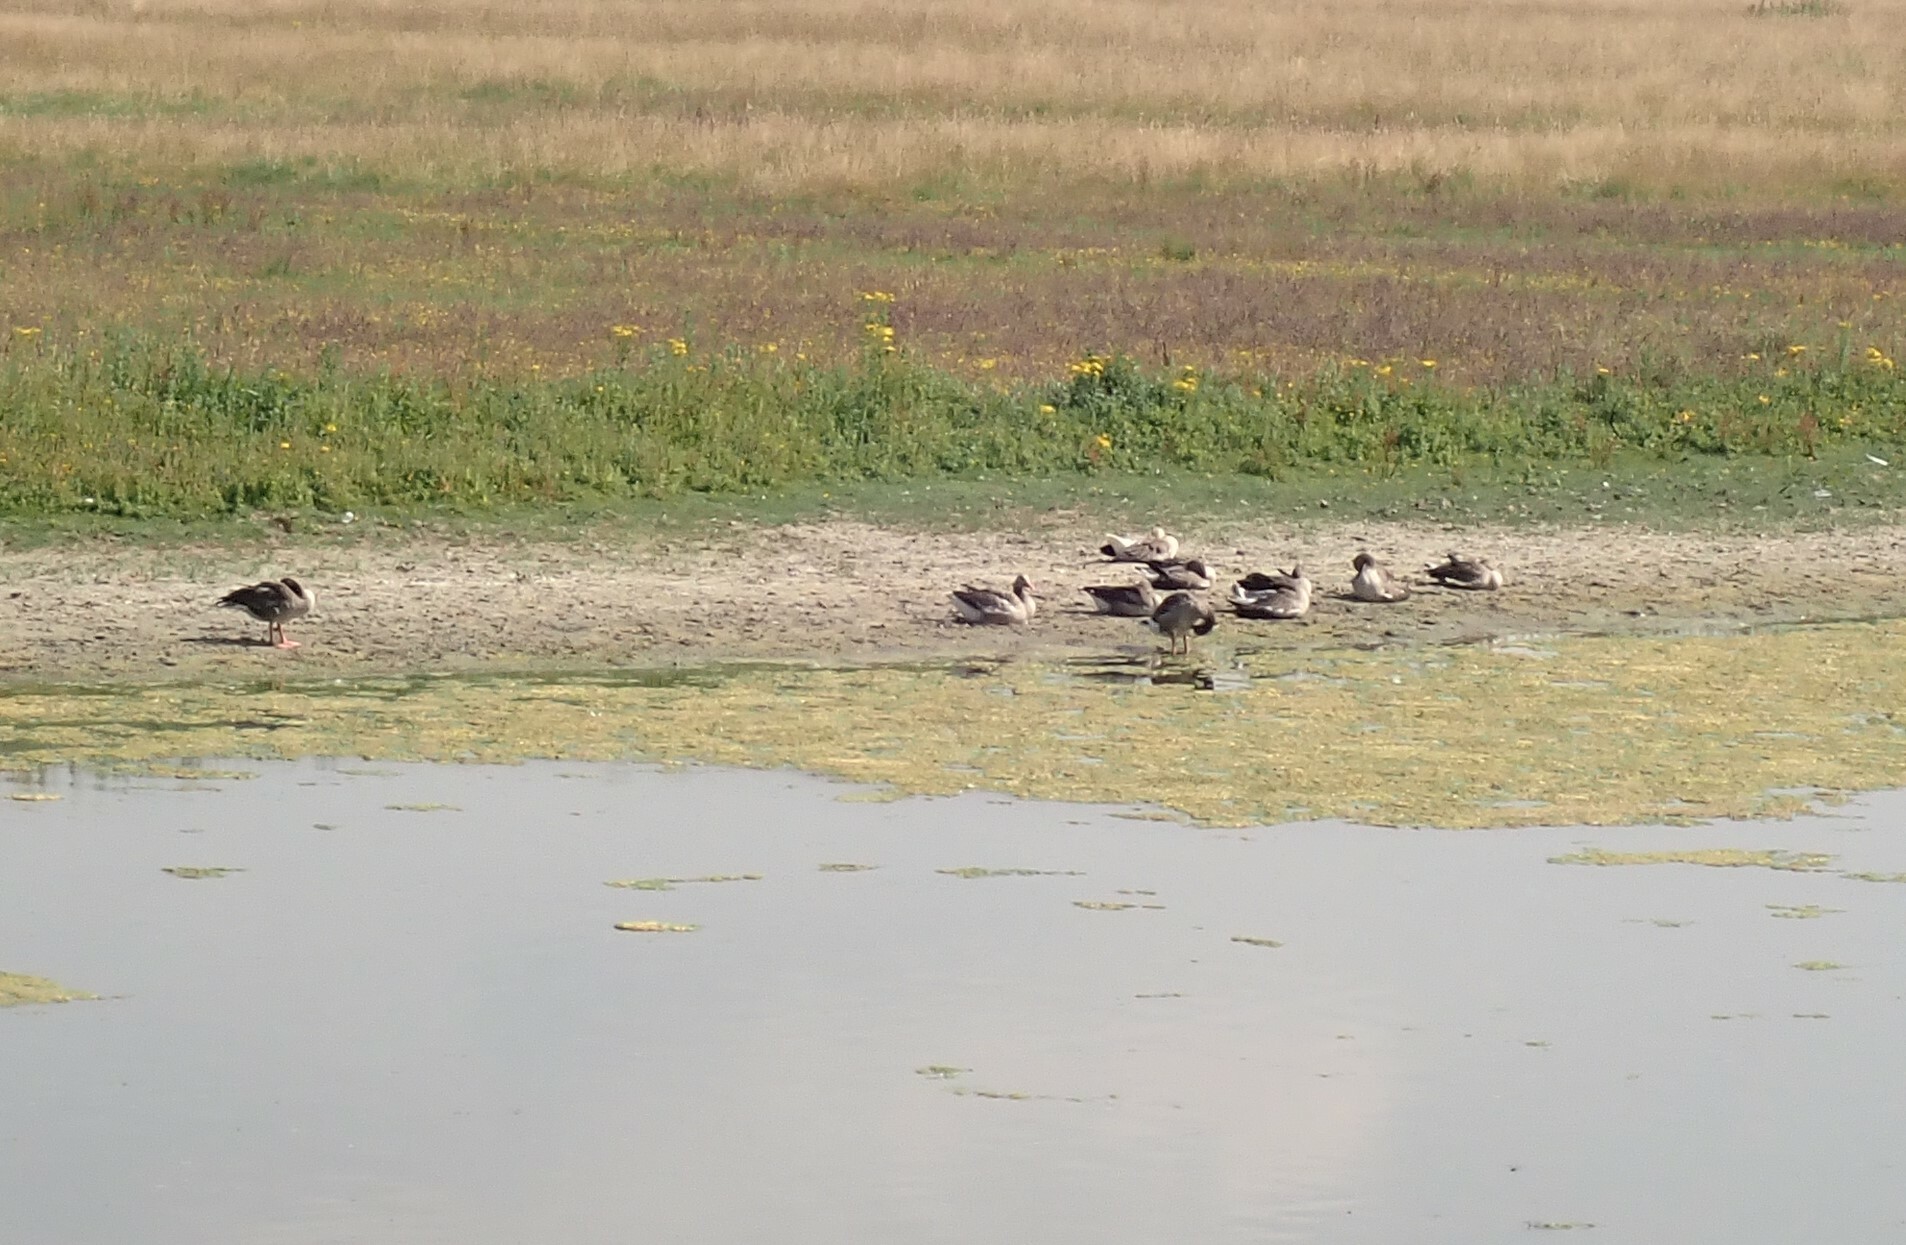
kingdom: Animalia
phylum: Chordata
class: Aves
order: Anseriformes
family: Anatidae
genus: Anser
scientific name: Anser anser
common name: Greylag goose
